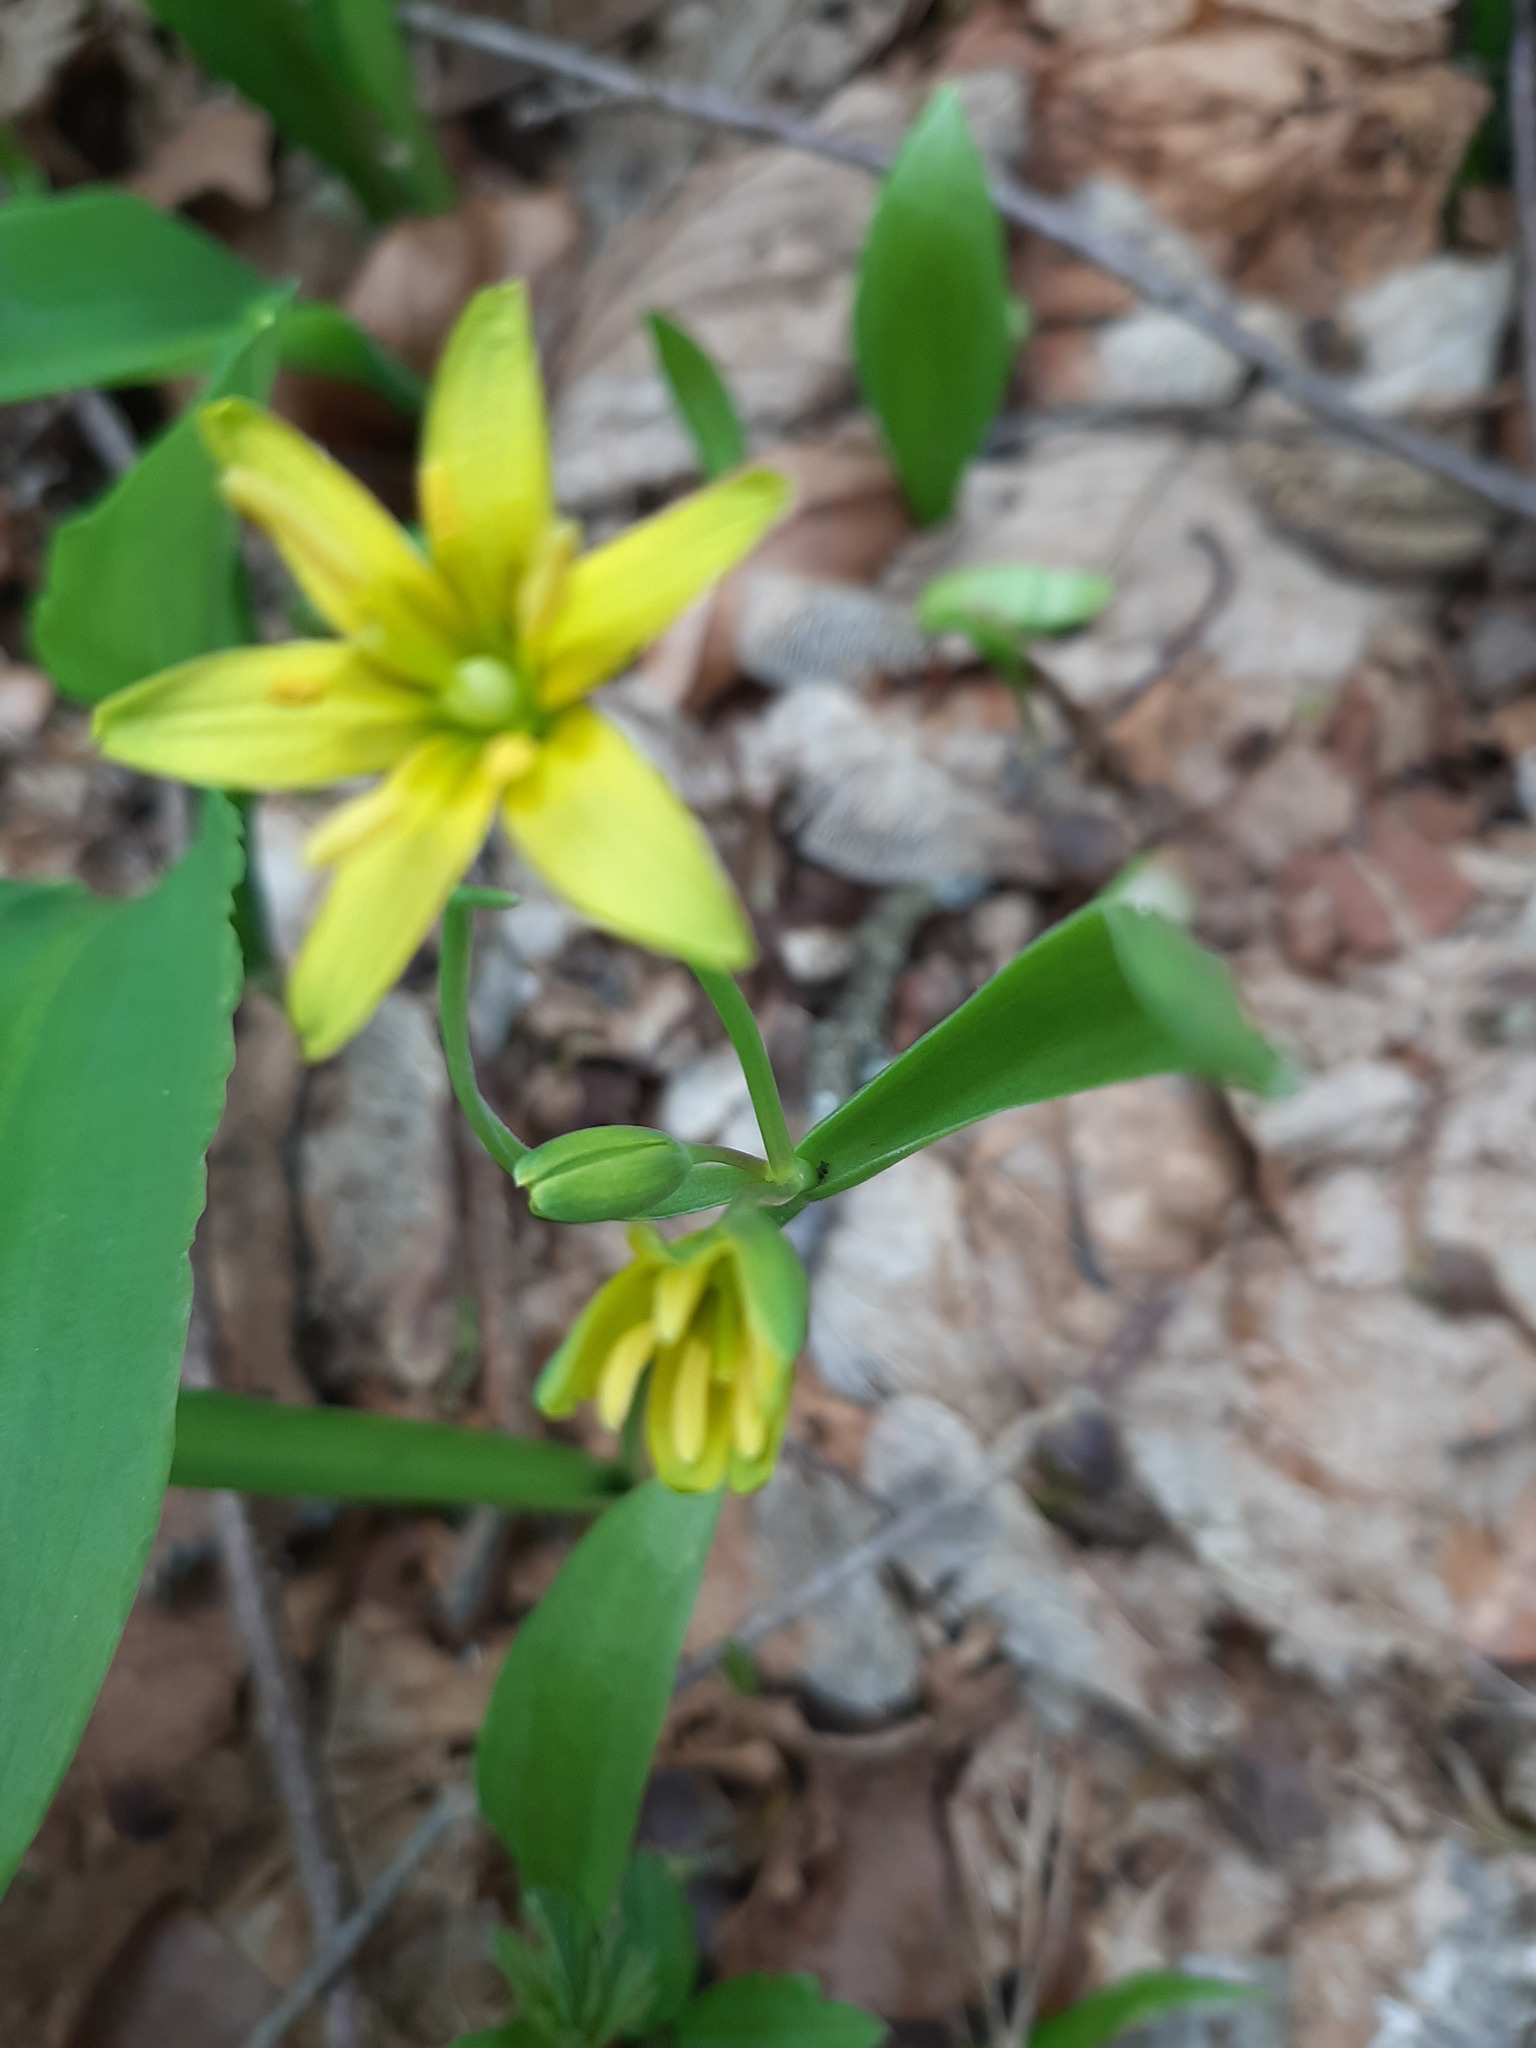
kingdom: Plantae
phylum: Tracheophyta
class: Liliopsida
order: Liliales
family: Liliaceae
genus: Gagea
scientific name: Gagea lutea
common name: Yellow star-of-bethlehem
